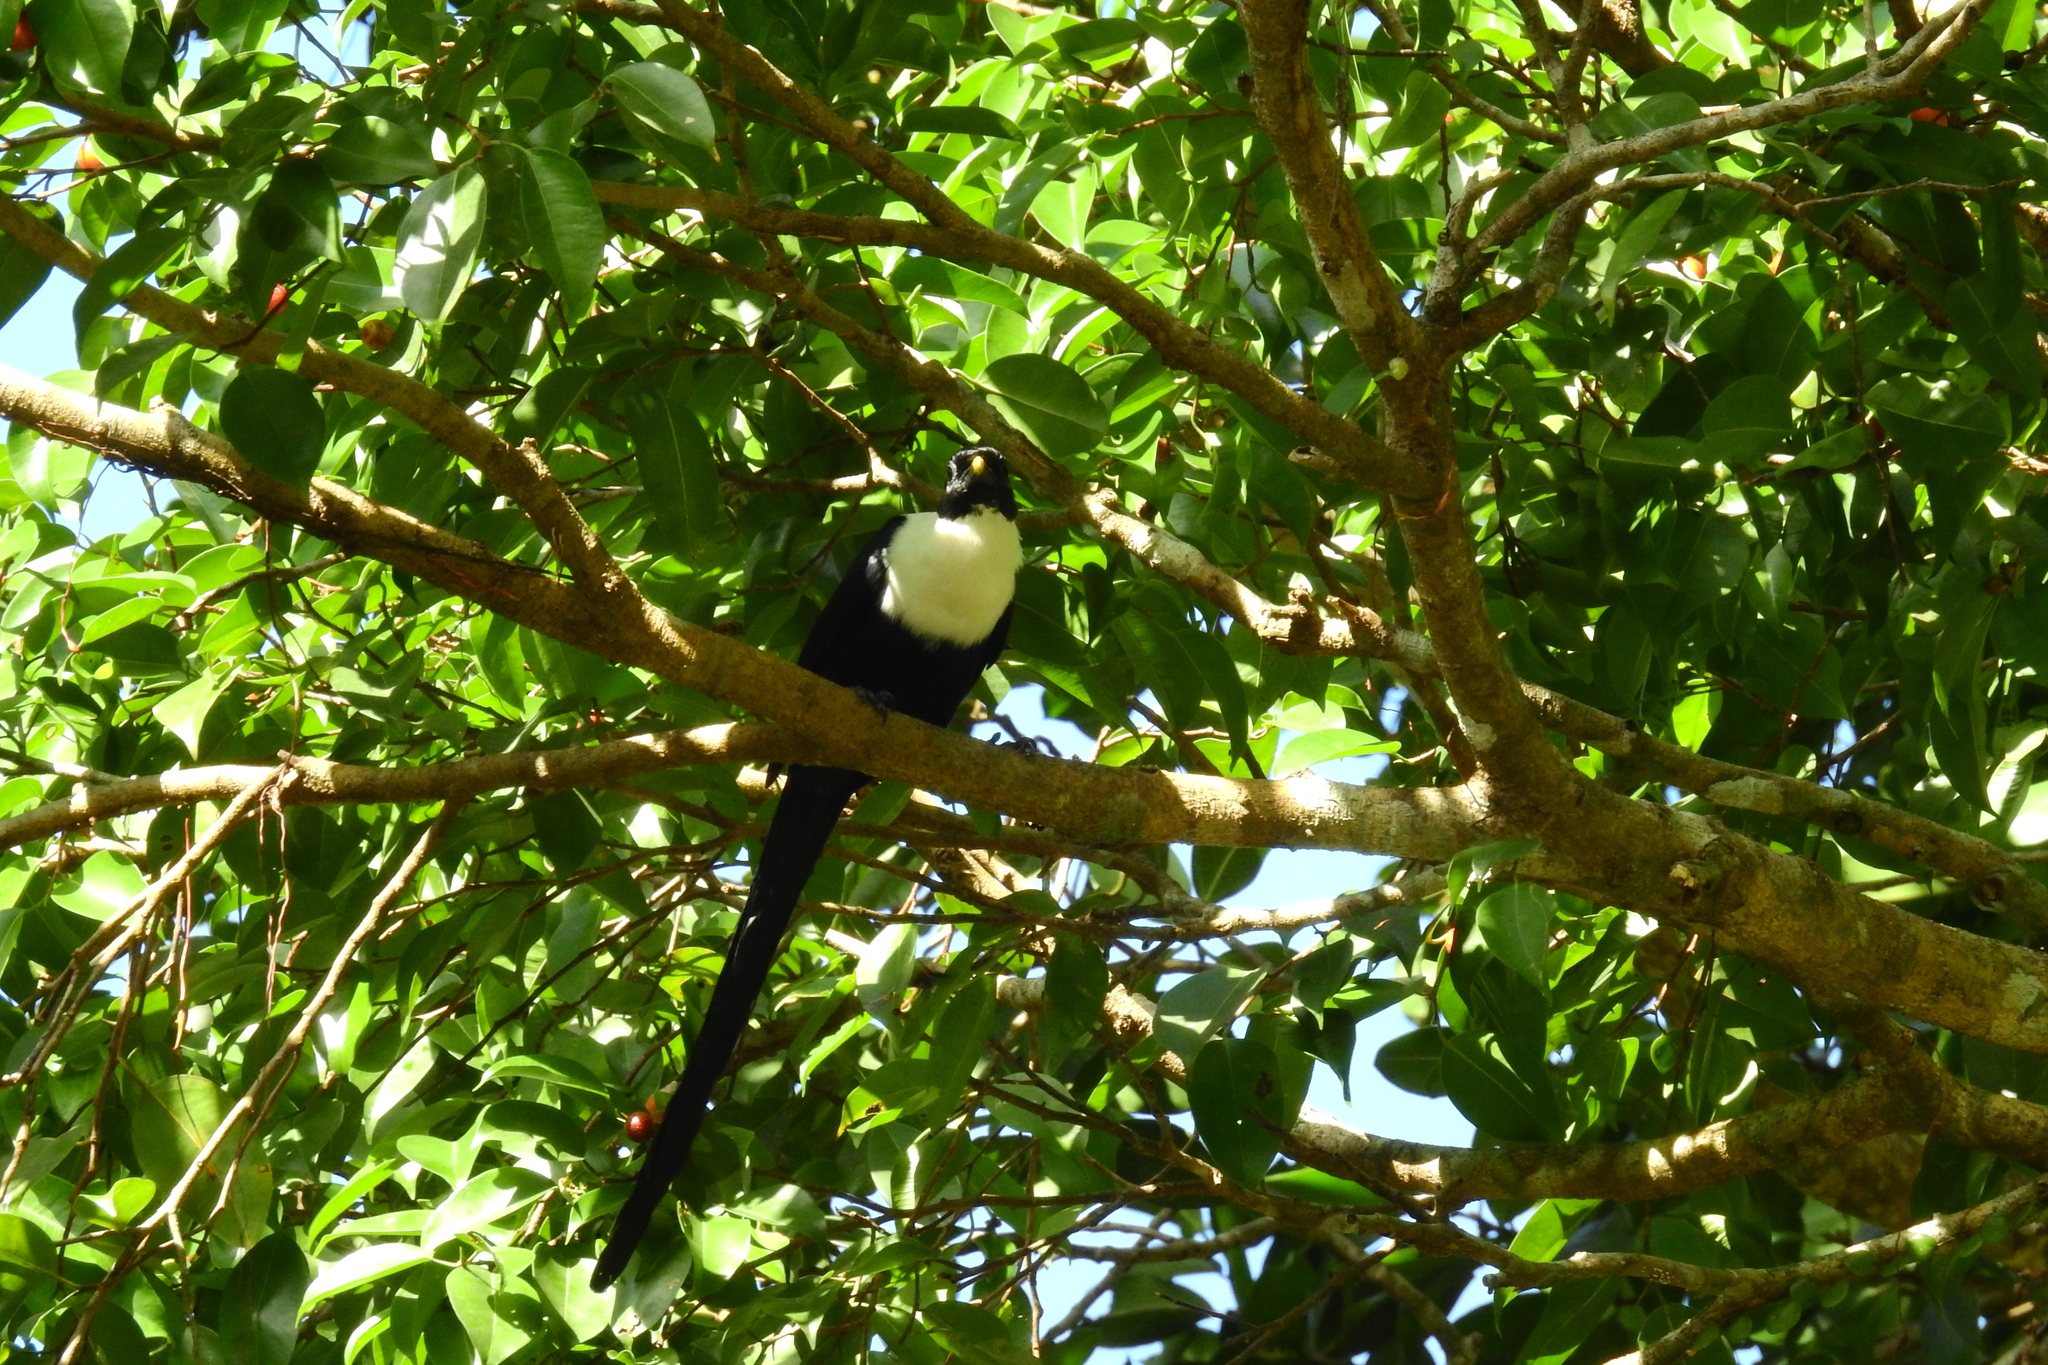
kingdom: Animalia
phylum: Chordata
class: Aves
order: Passeriformes
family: Sturnidae
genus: Streptocitta
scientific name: Streptocitta albicollis
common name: White-necked myna
